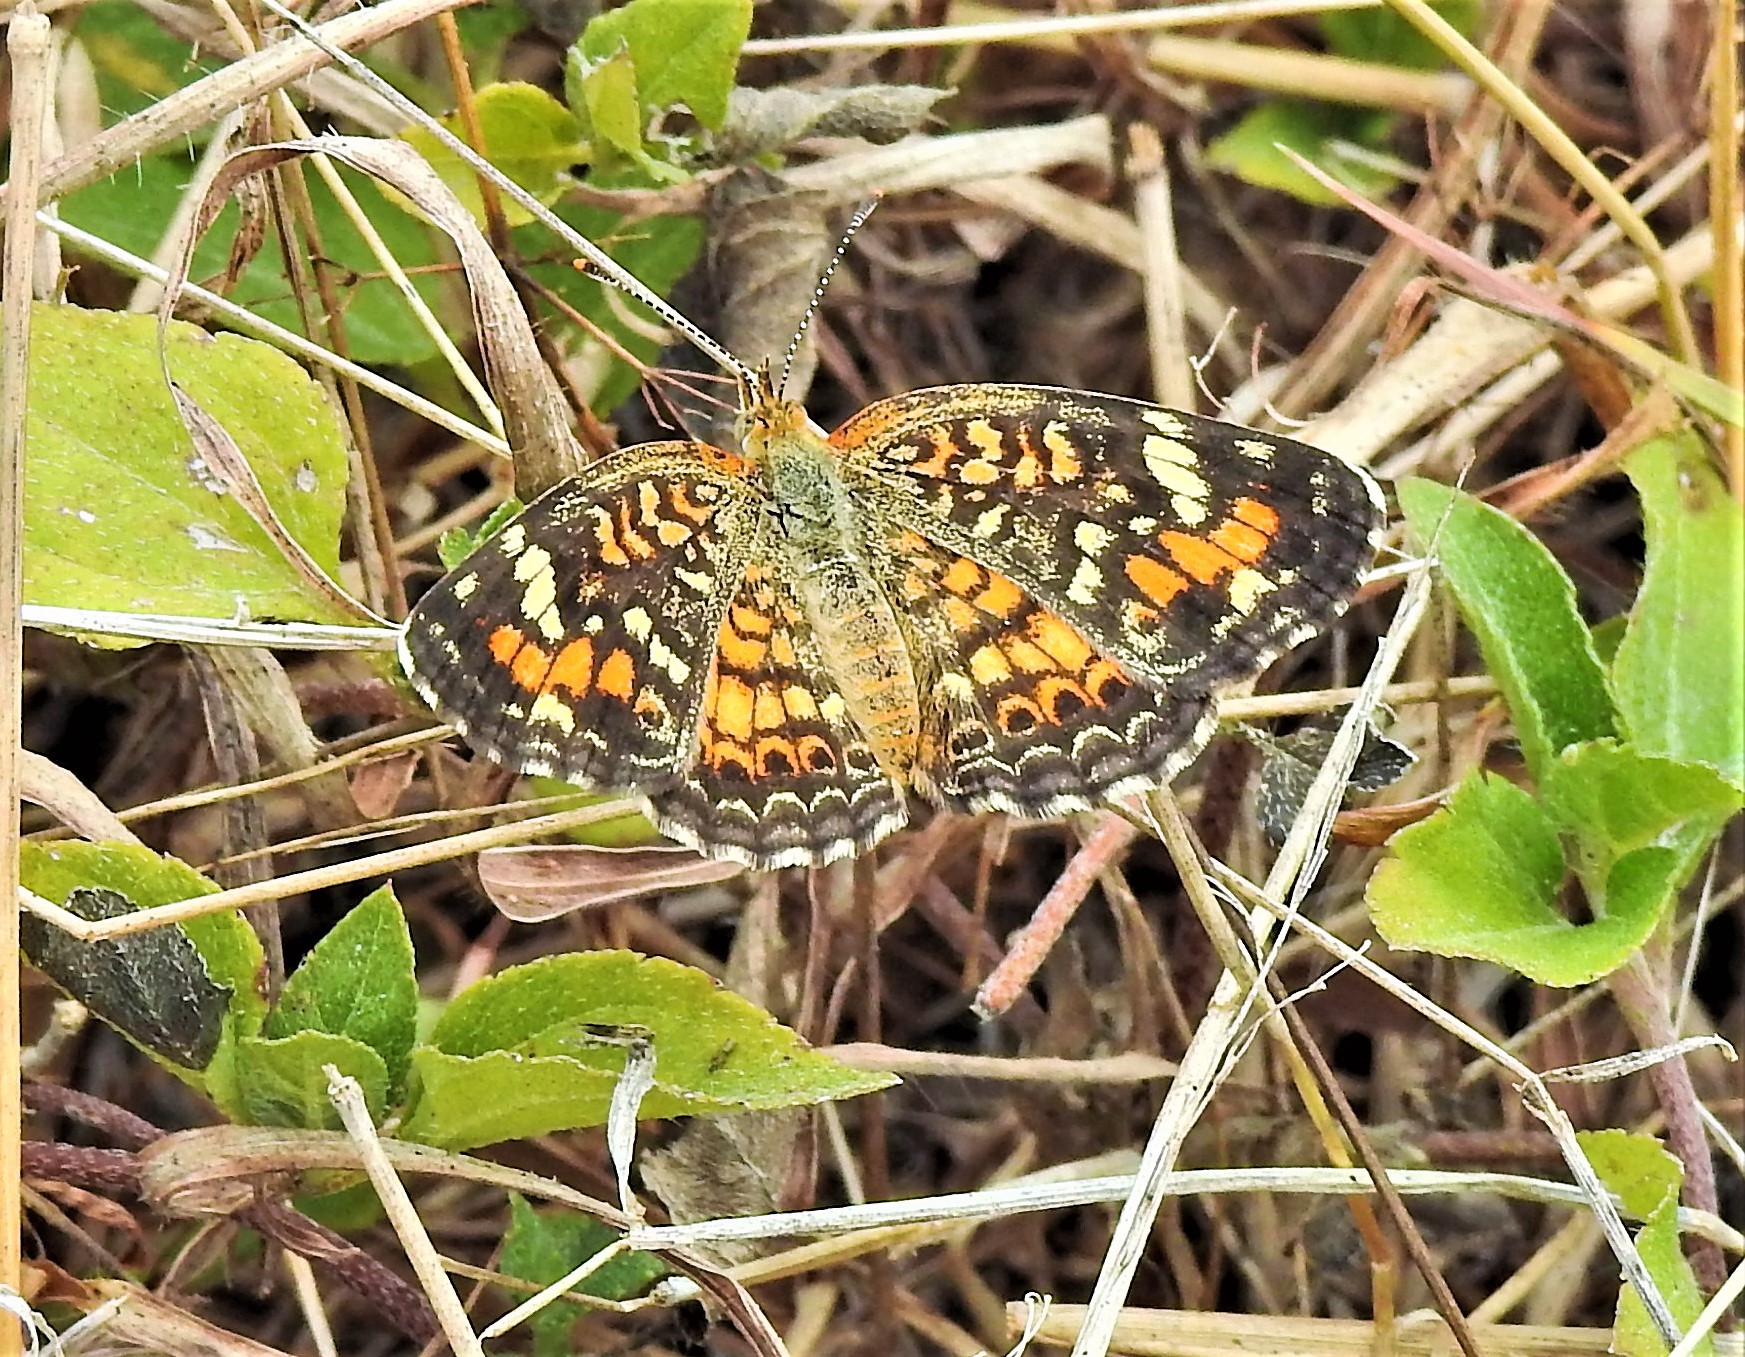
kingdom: Animalia
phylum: Arthropoda
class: Insecta
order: Lepidoptera
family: Nymphalidae
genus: Phyciodes
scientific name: Phyciodes phaon
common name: Phaon crescent
